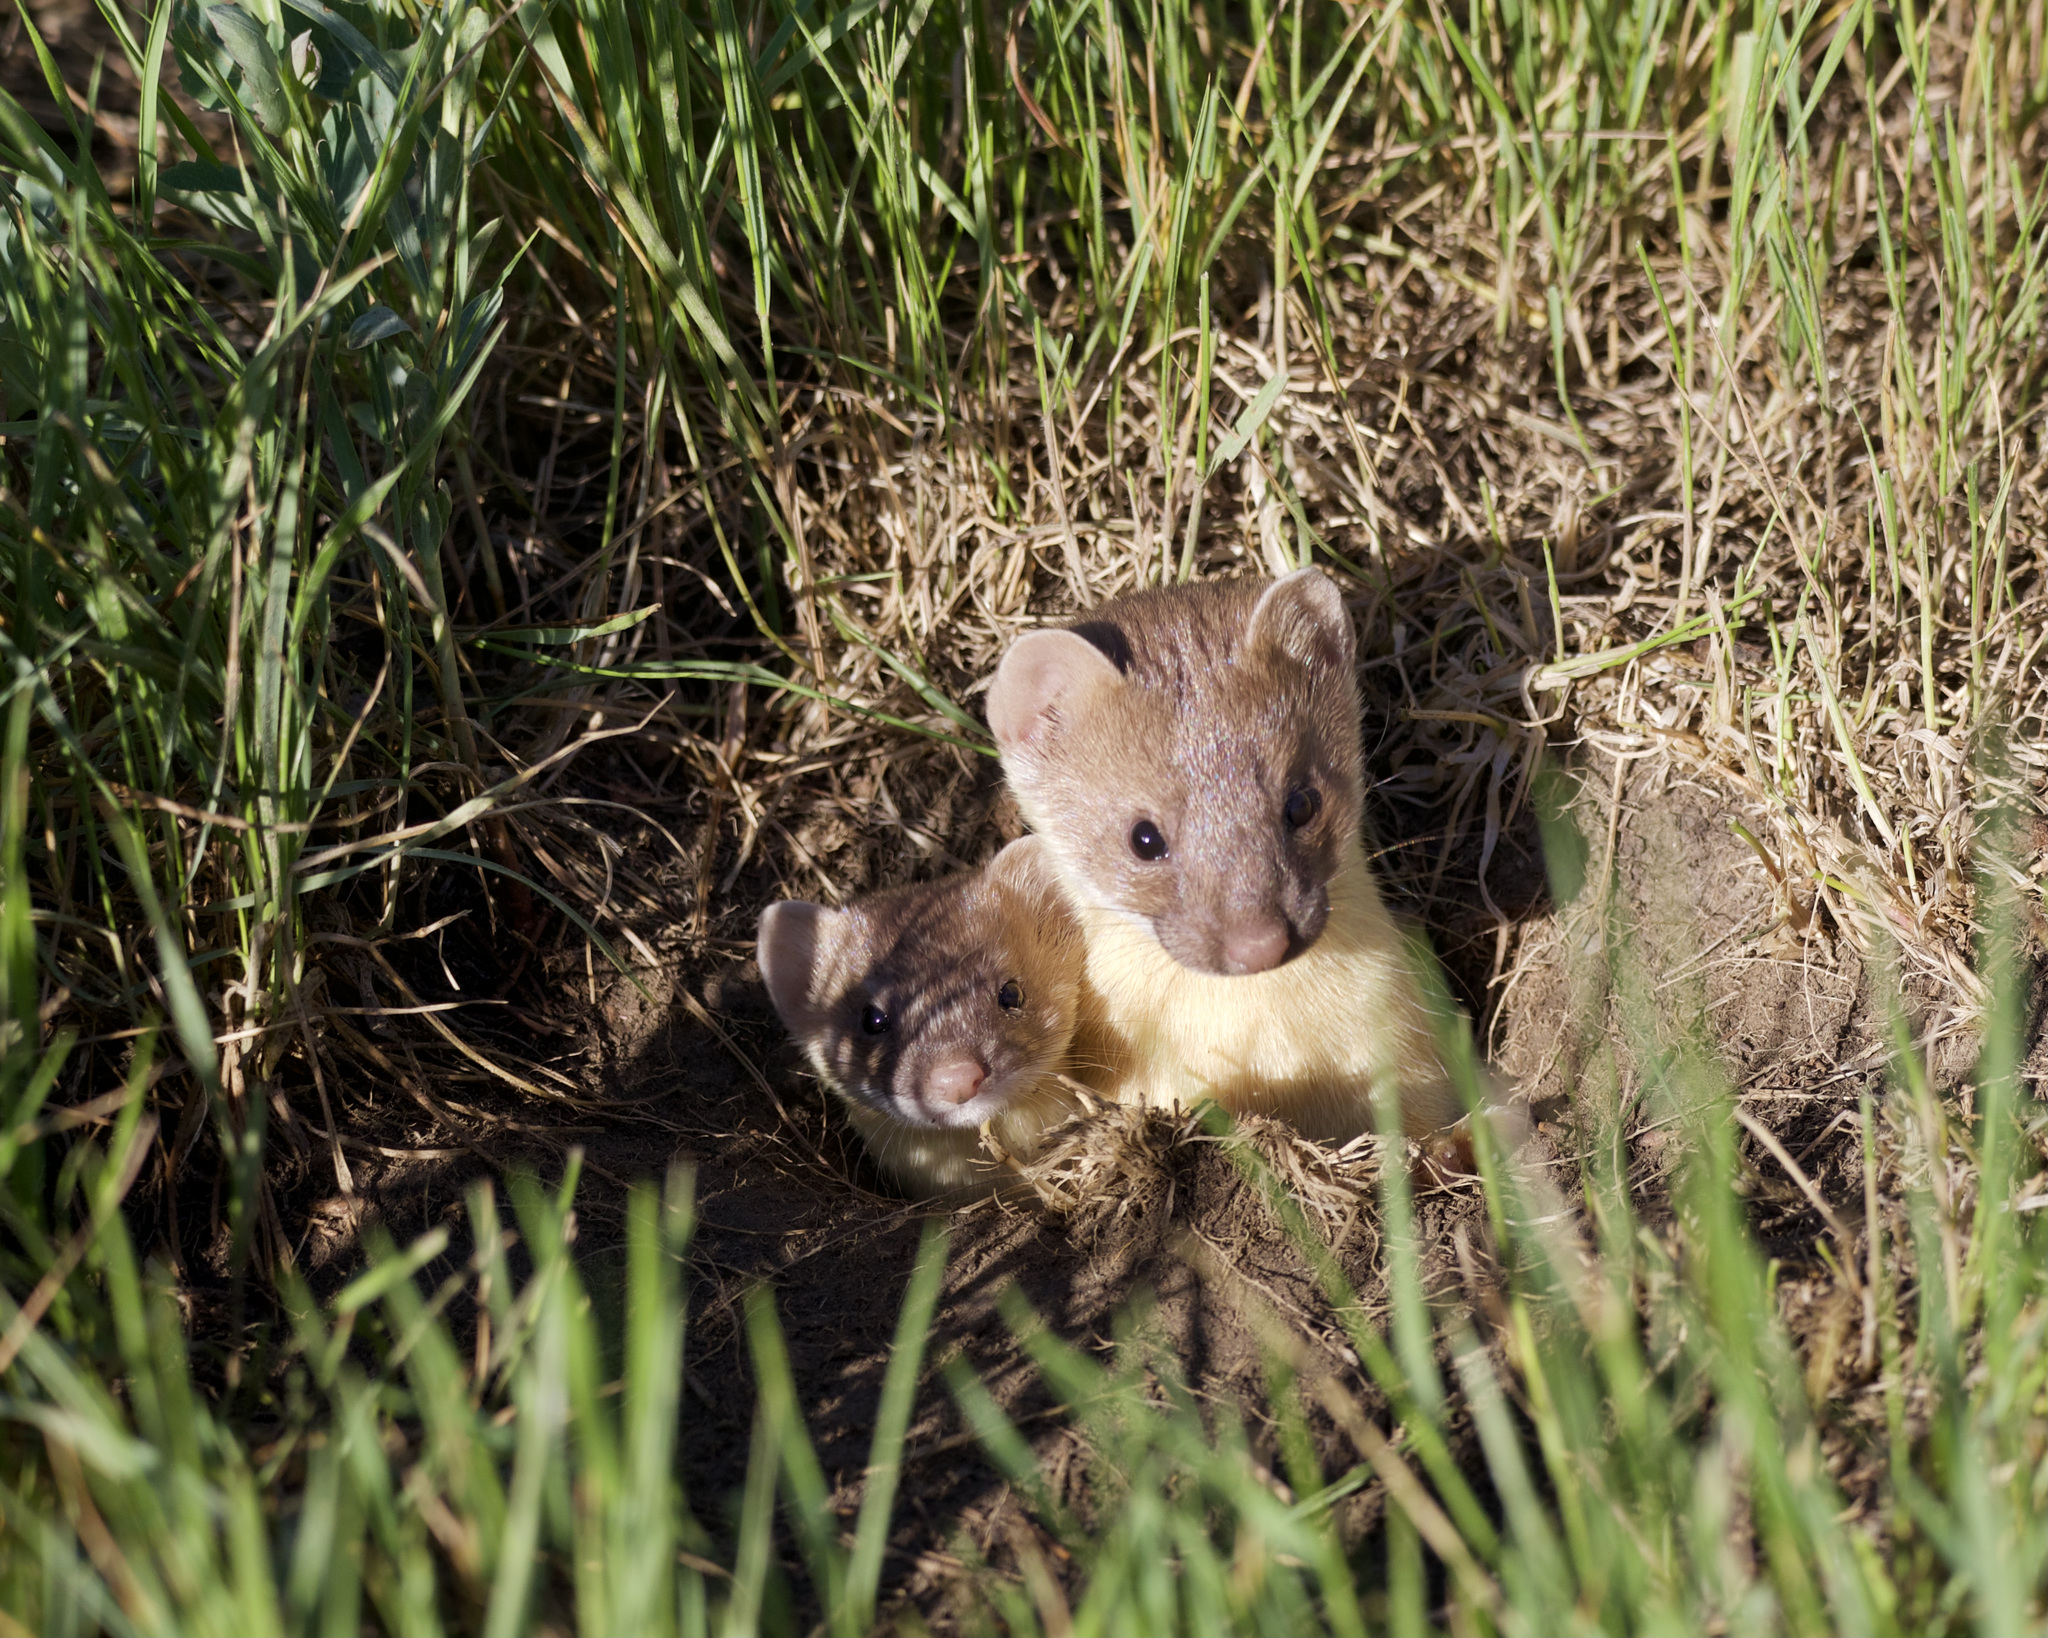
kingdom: Animalia
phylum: Chordata
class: Mammalia
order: Carnivora
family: Mustelidae
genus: Mustela
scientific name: Mustela
